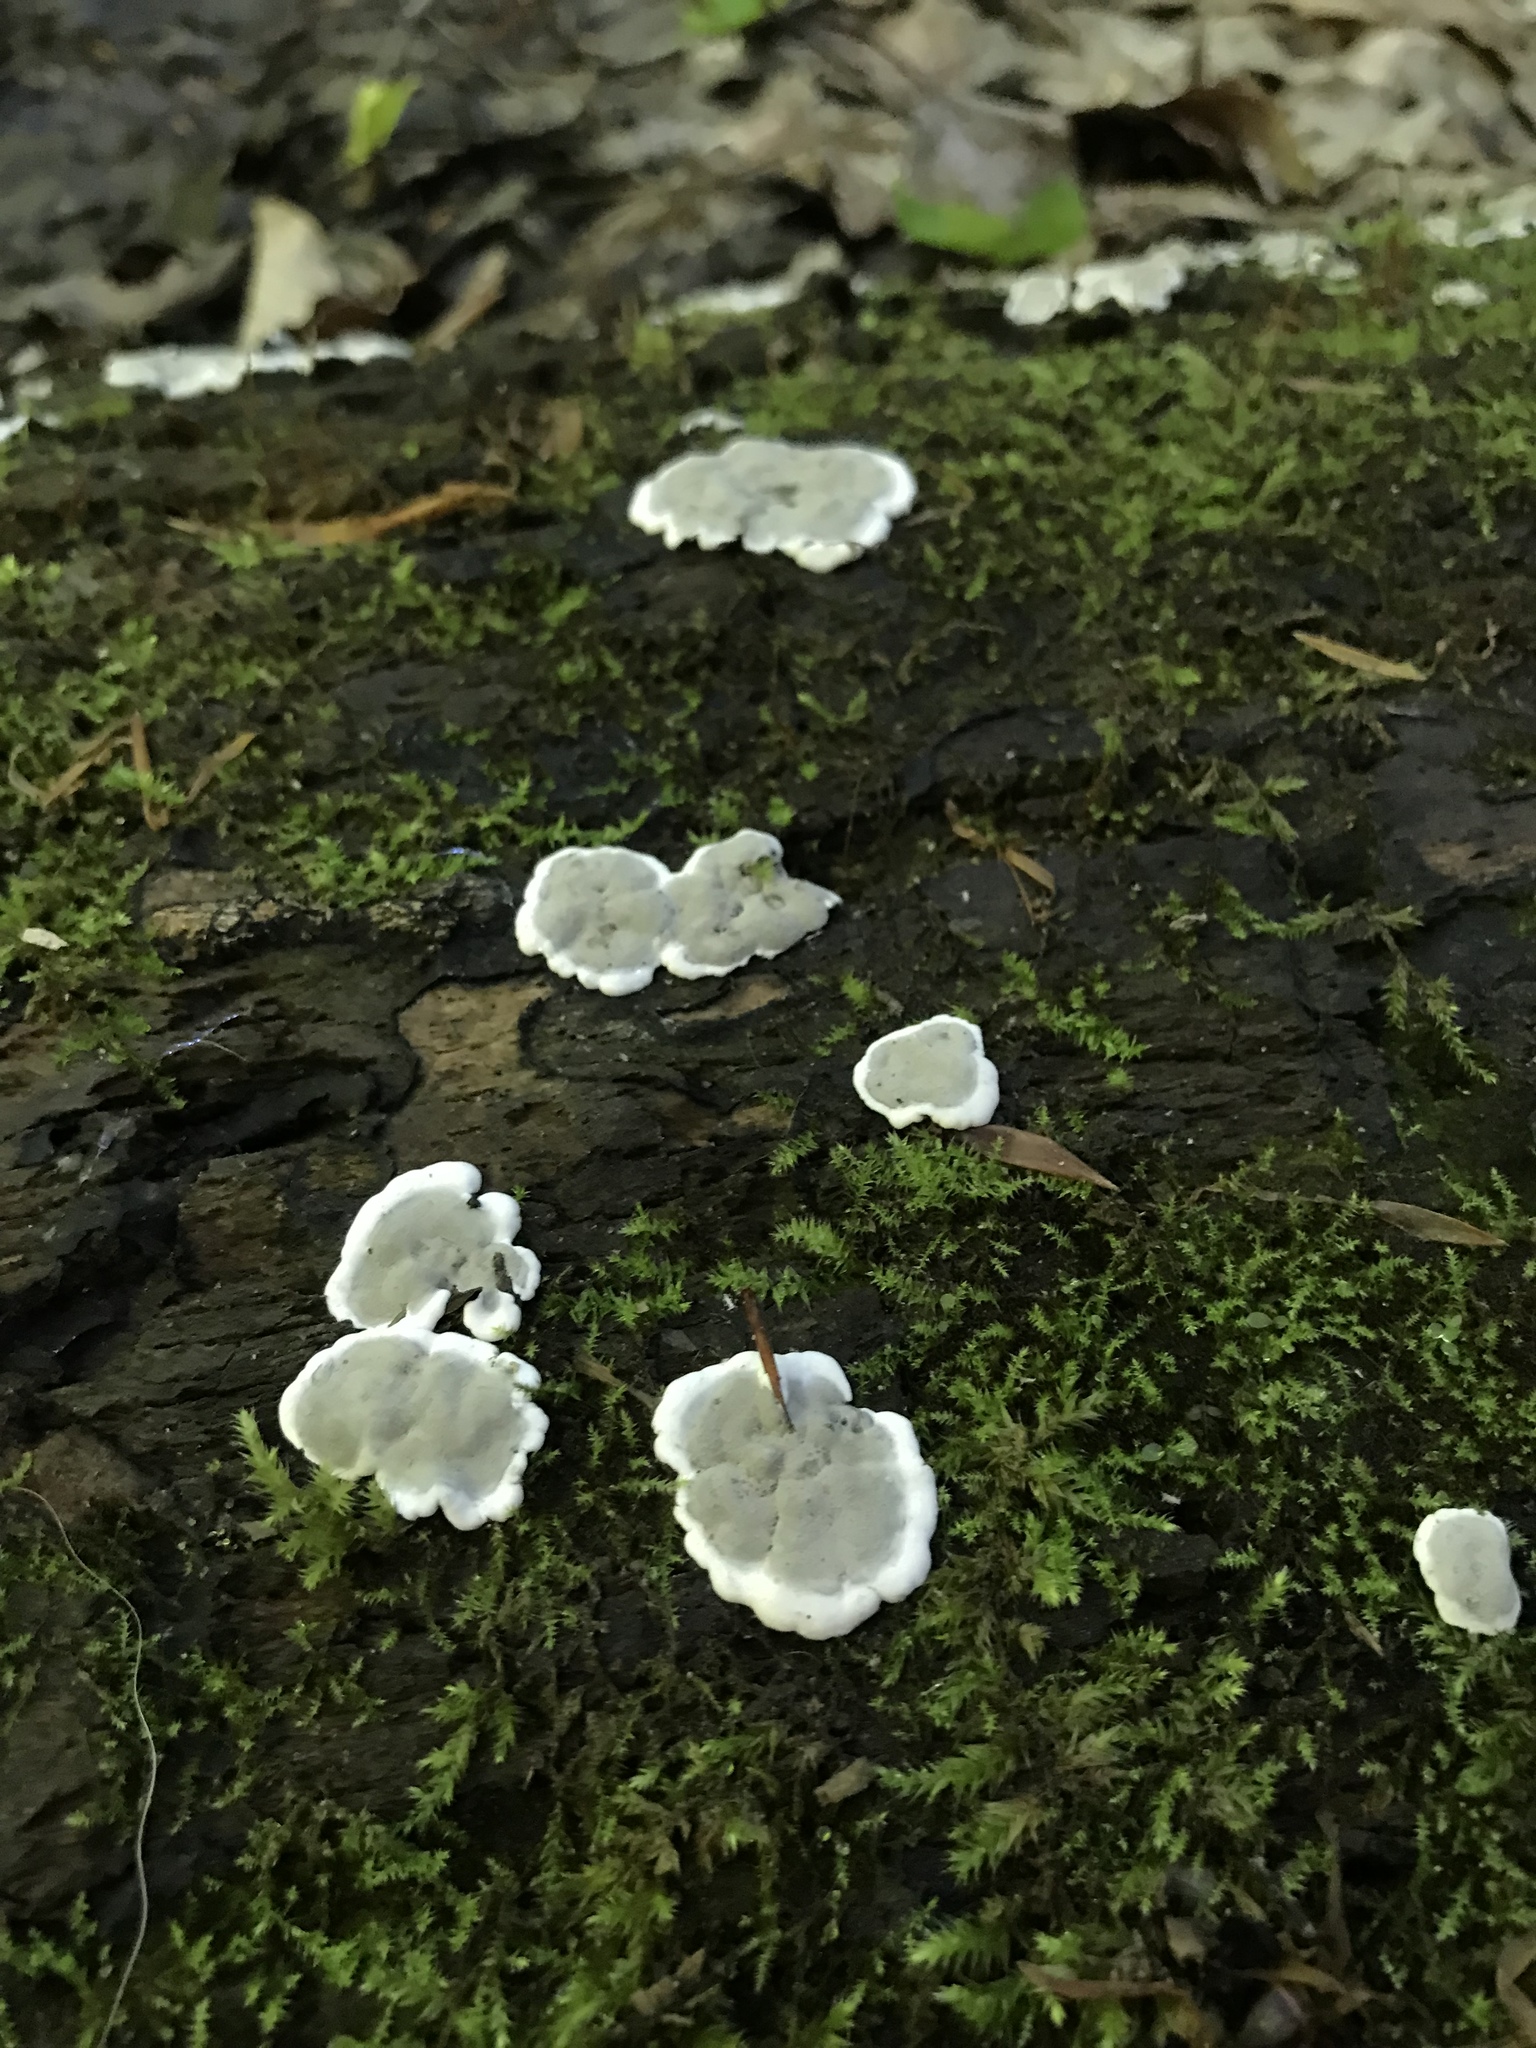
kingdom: Fungi
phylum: Ascomycota
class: Sordariomycetes
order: Xylariales
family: Xylariaceae
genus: Kretzschmaria
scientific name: Kretzschmaria deusta
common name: Brittle cinder
